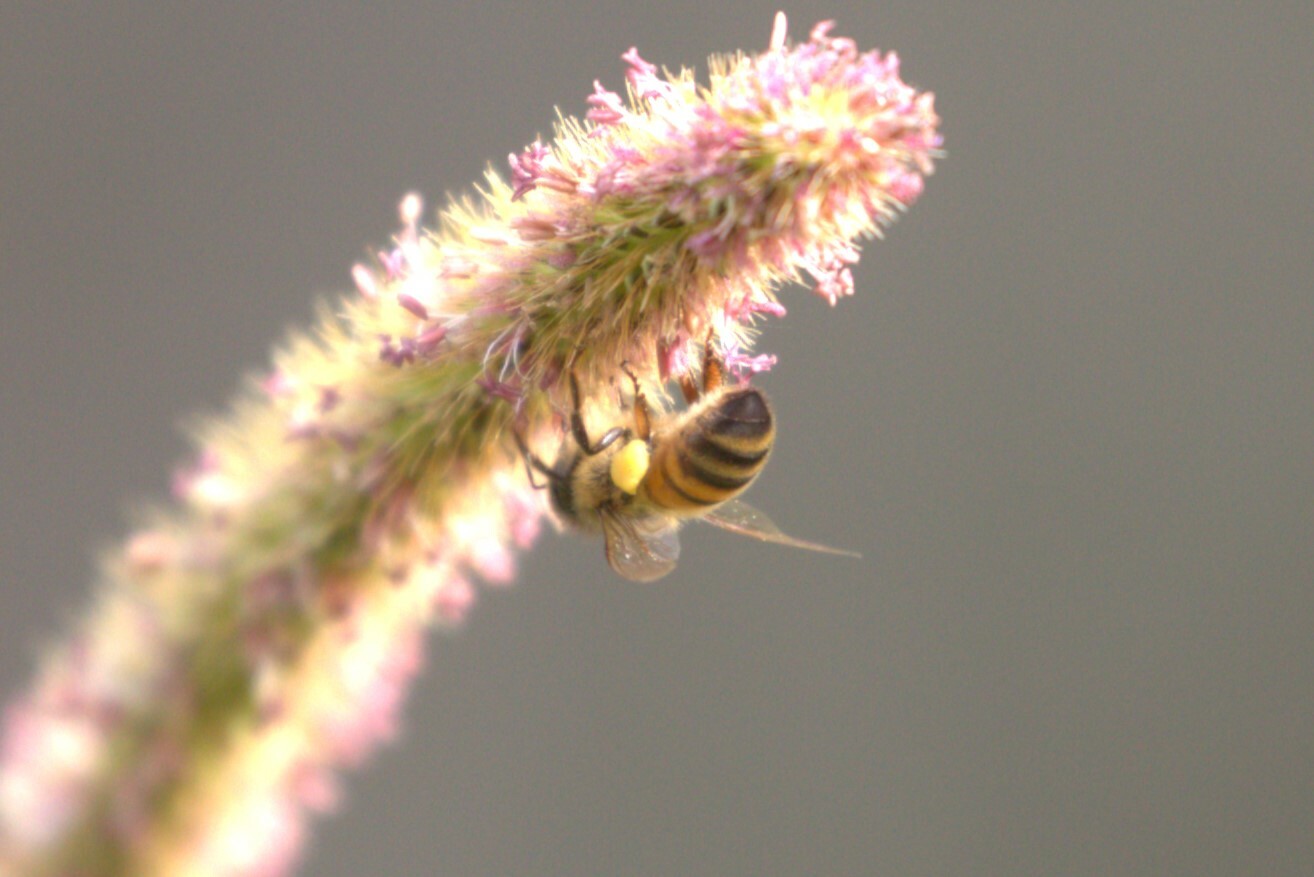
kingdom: Animalia
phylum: Arthropoda
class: Insecta
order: Hymenoptera
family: Apidae
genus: Apis
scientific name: Apis mellifera
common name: Honey bee
